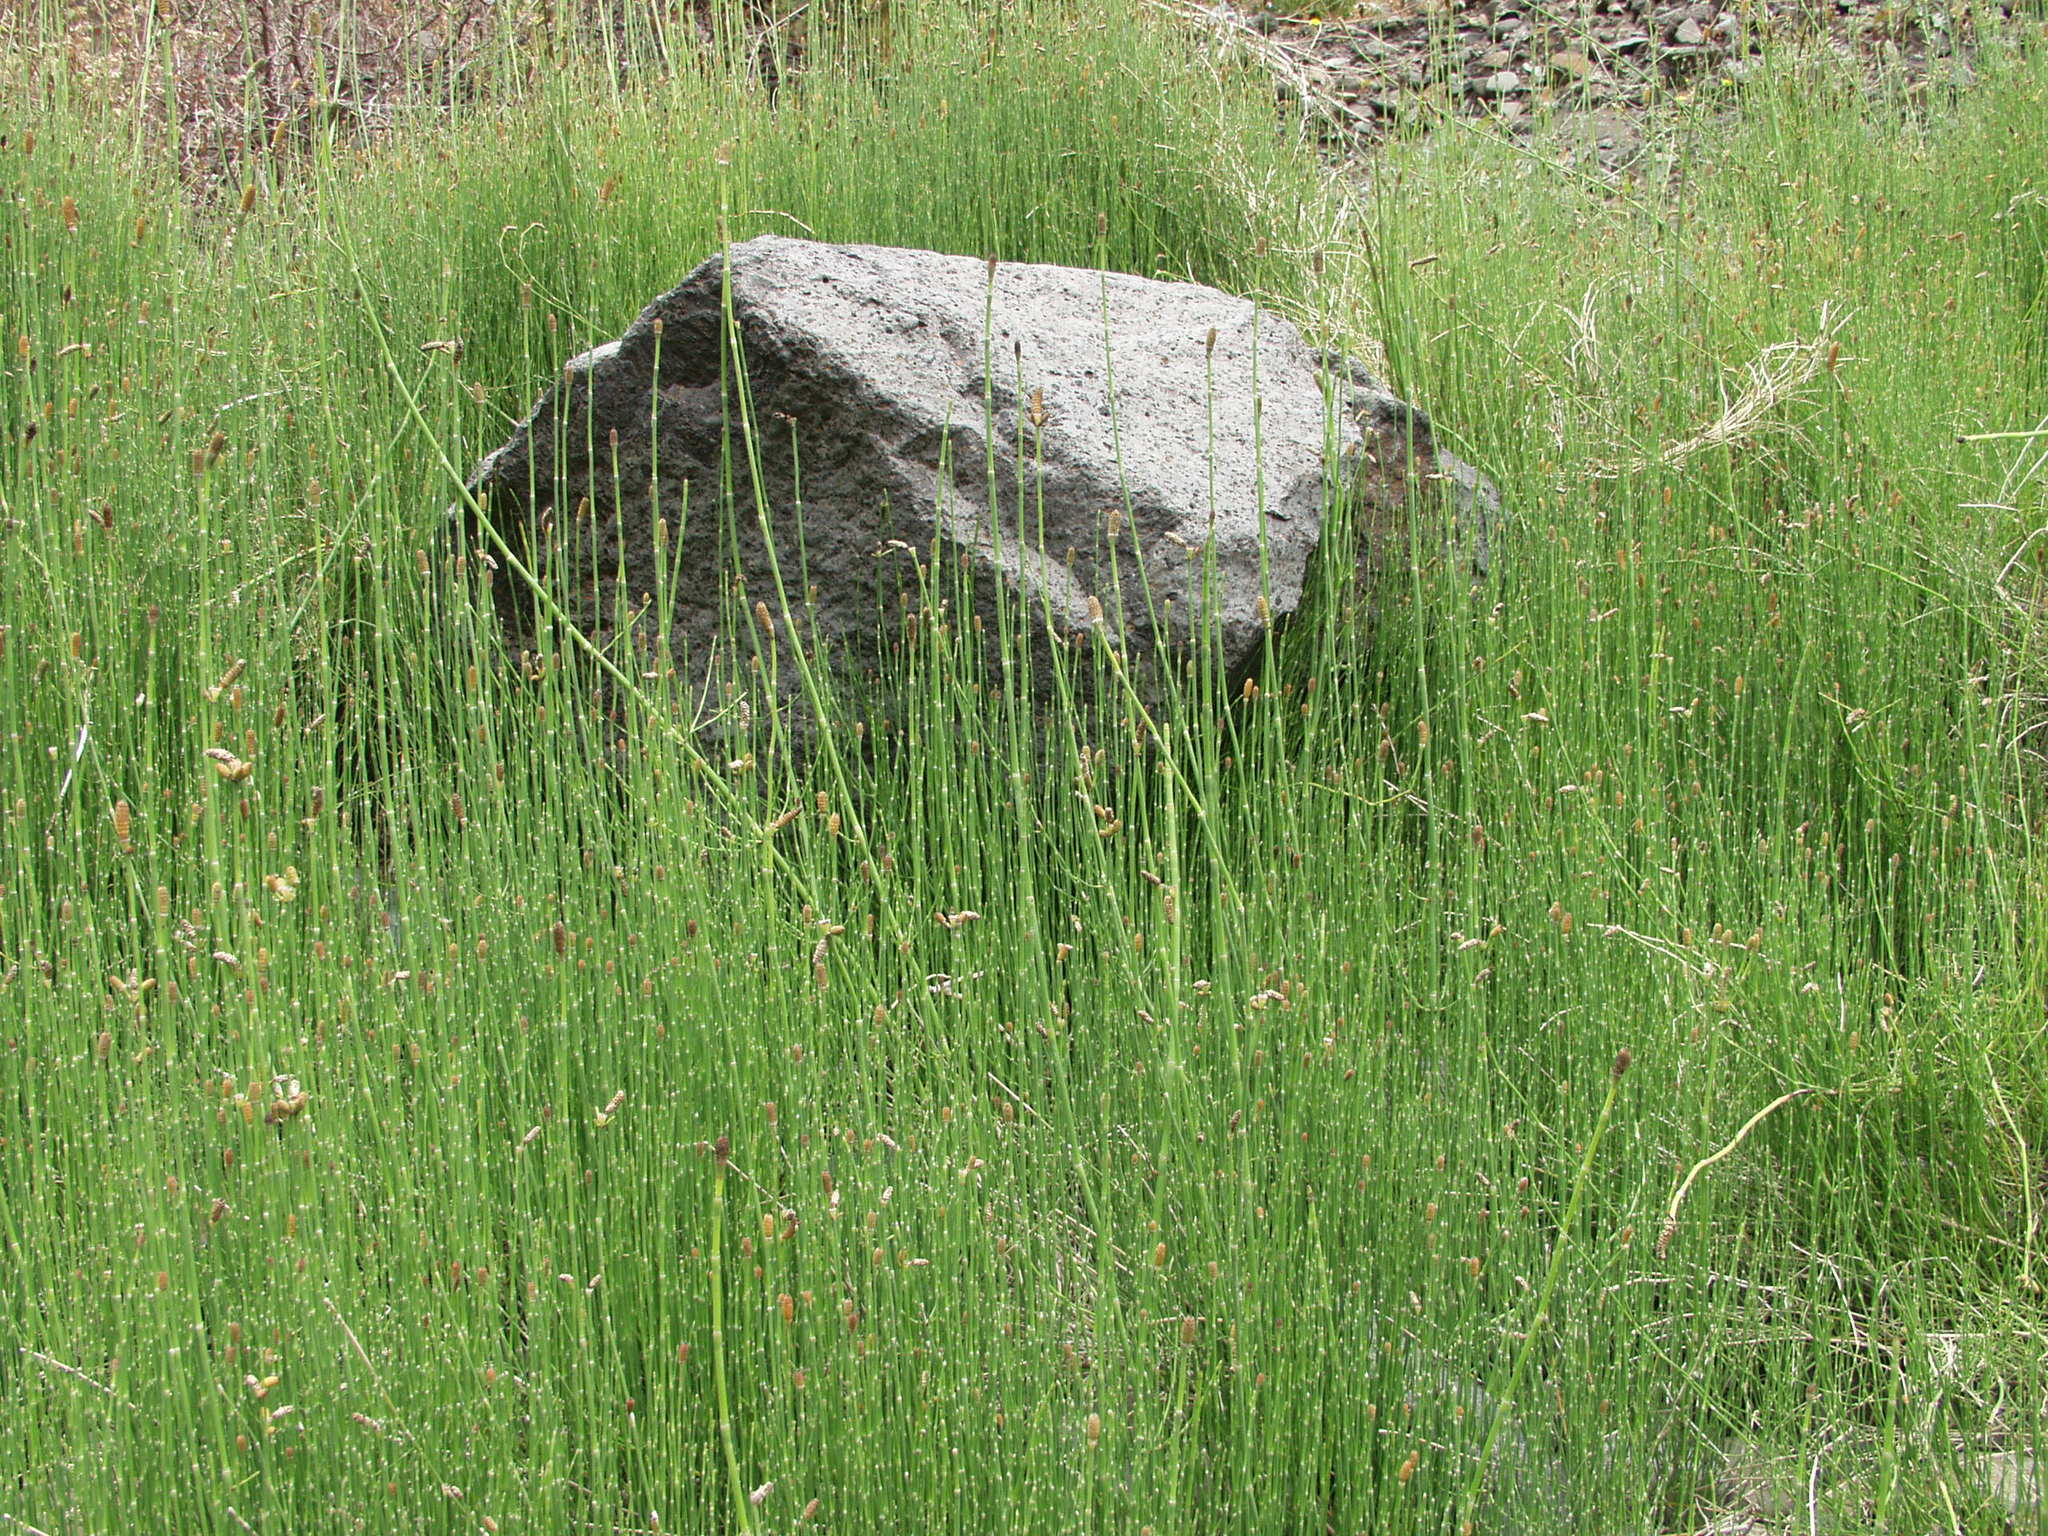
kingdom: Plantae
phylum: Tracheophyta
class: Polypodiopsida
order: Equisetales
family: Equisetaceae
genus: Equisetum
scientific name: Equisetum ramosissimum
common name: Branched horsetail
